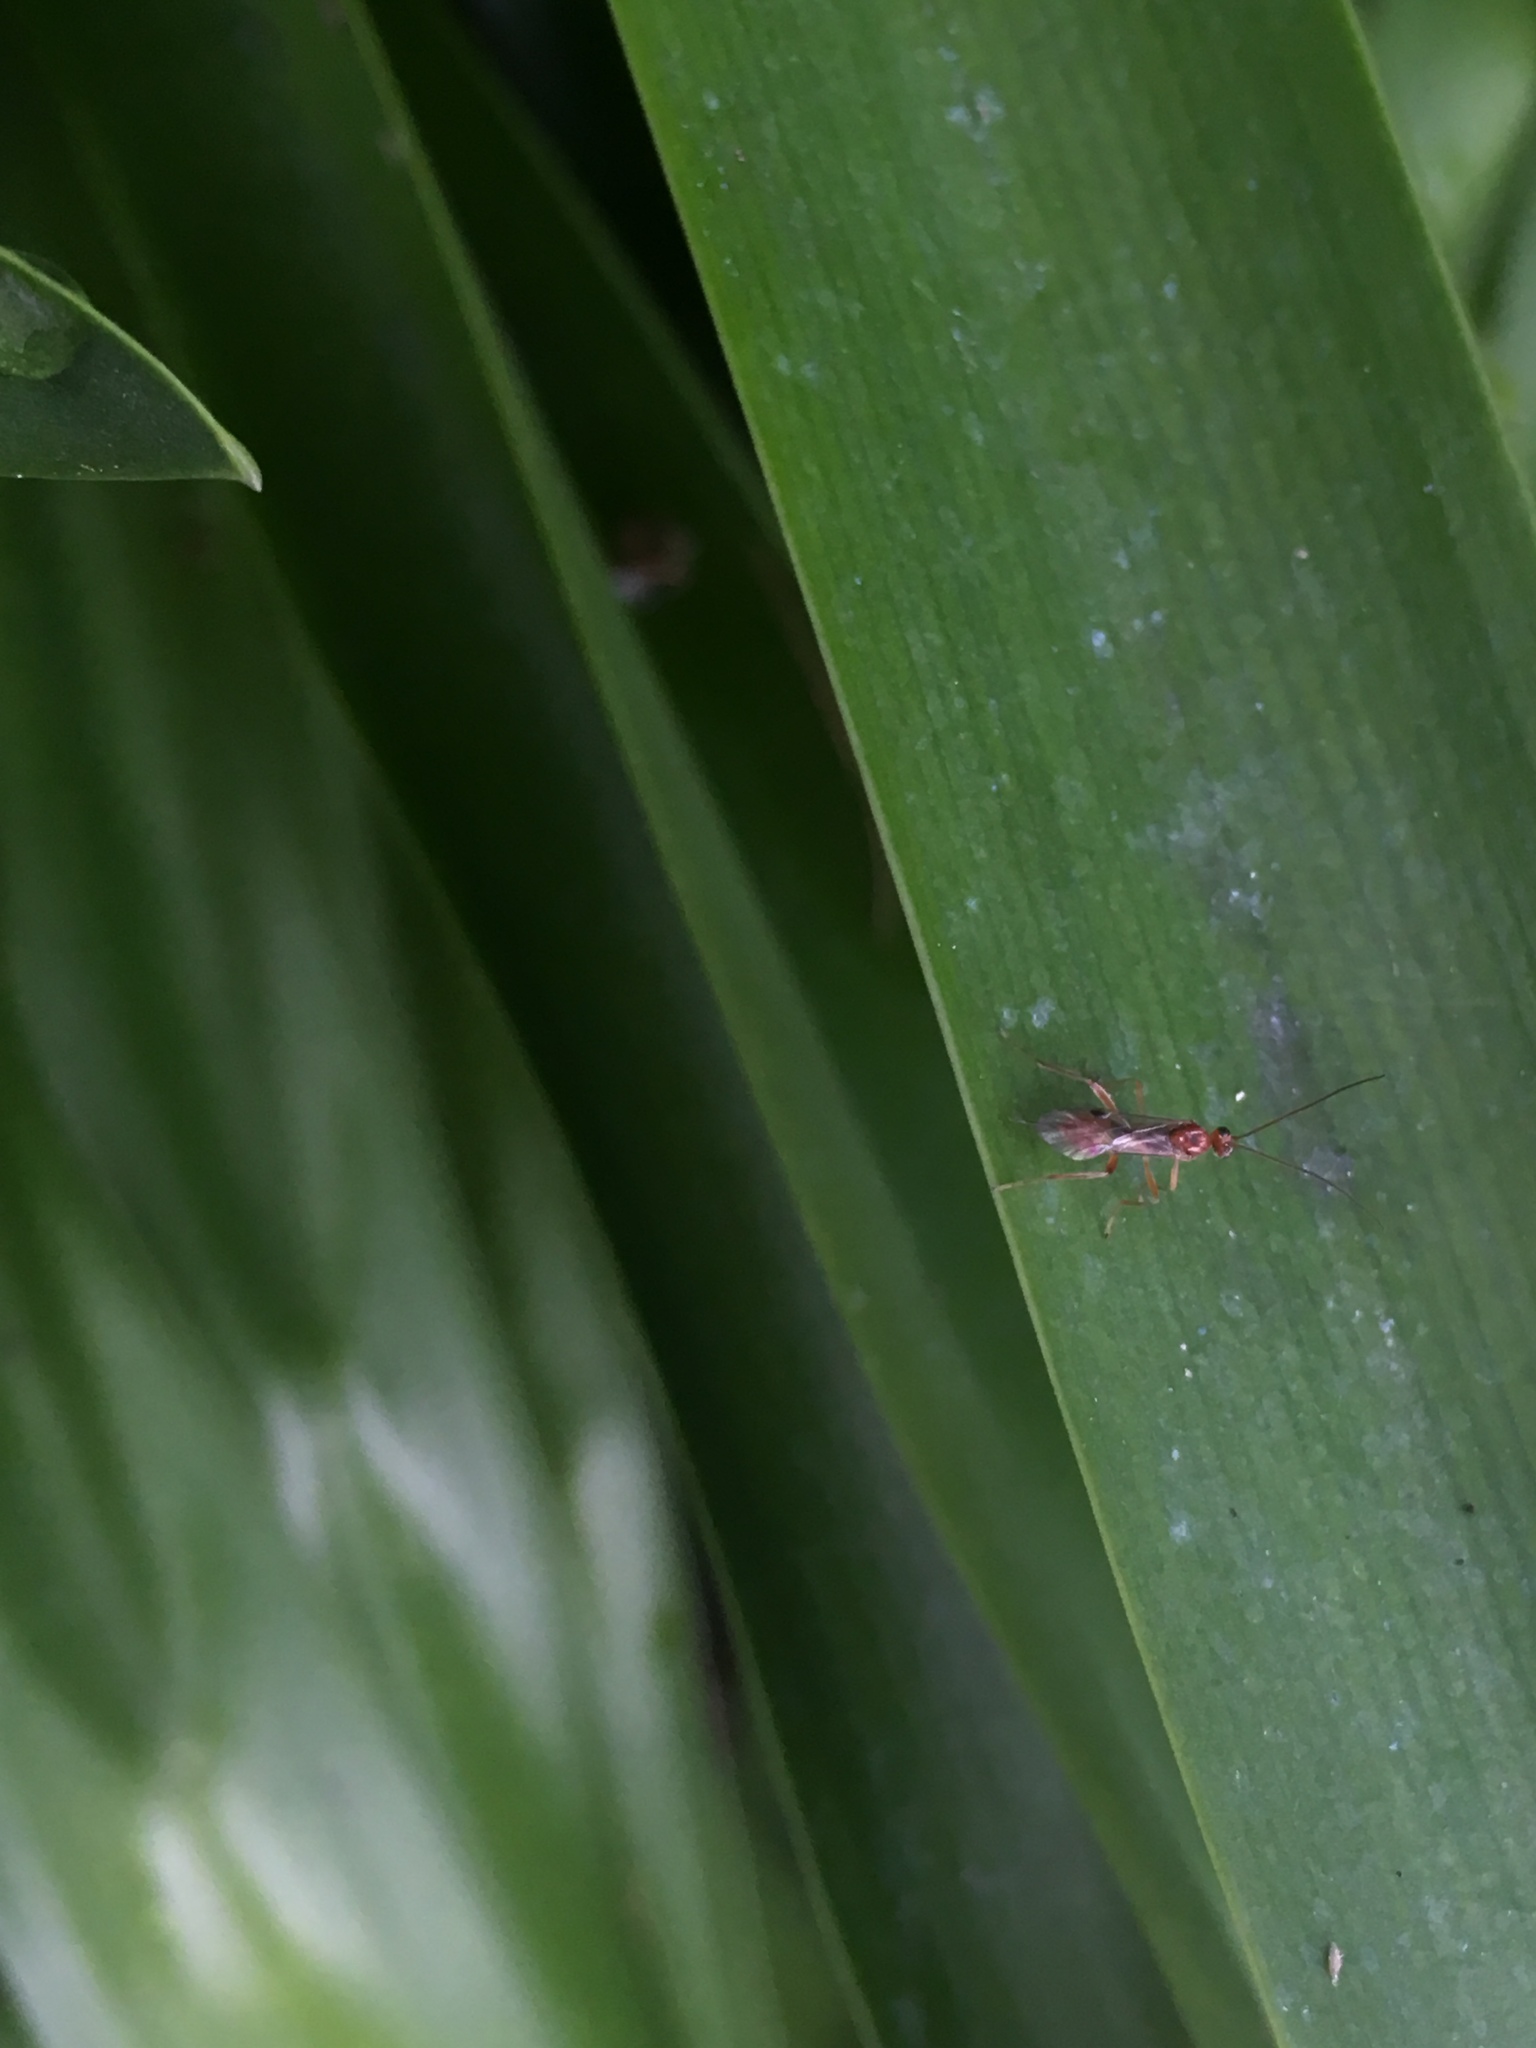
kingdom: Animalia
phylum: Arthropoda
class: Insecta
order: Hymenoptera
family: Braconidae
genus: Meteorus
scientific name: Meteorus pulchricornis
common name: Braconid wasp
